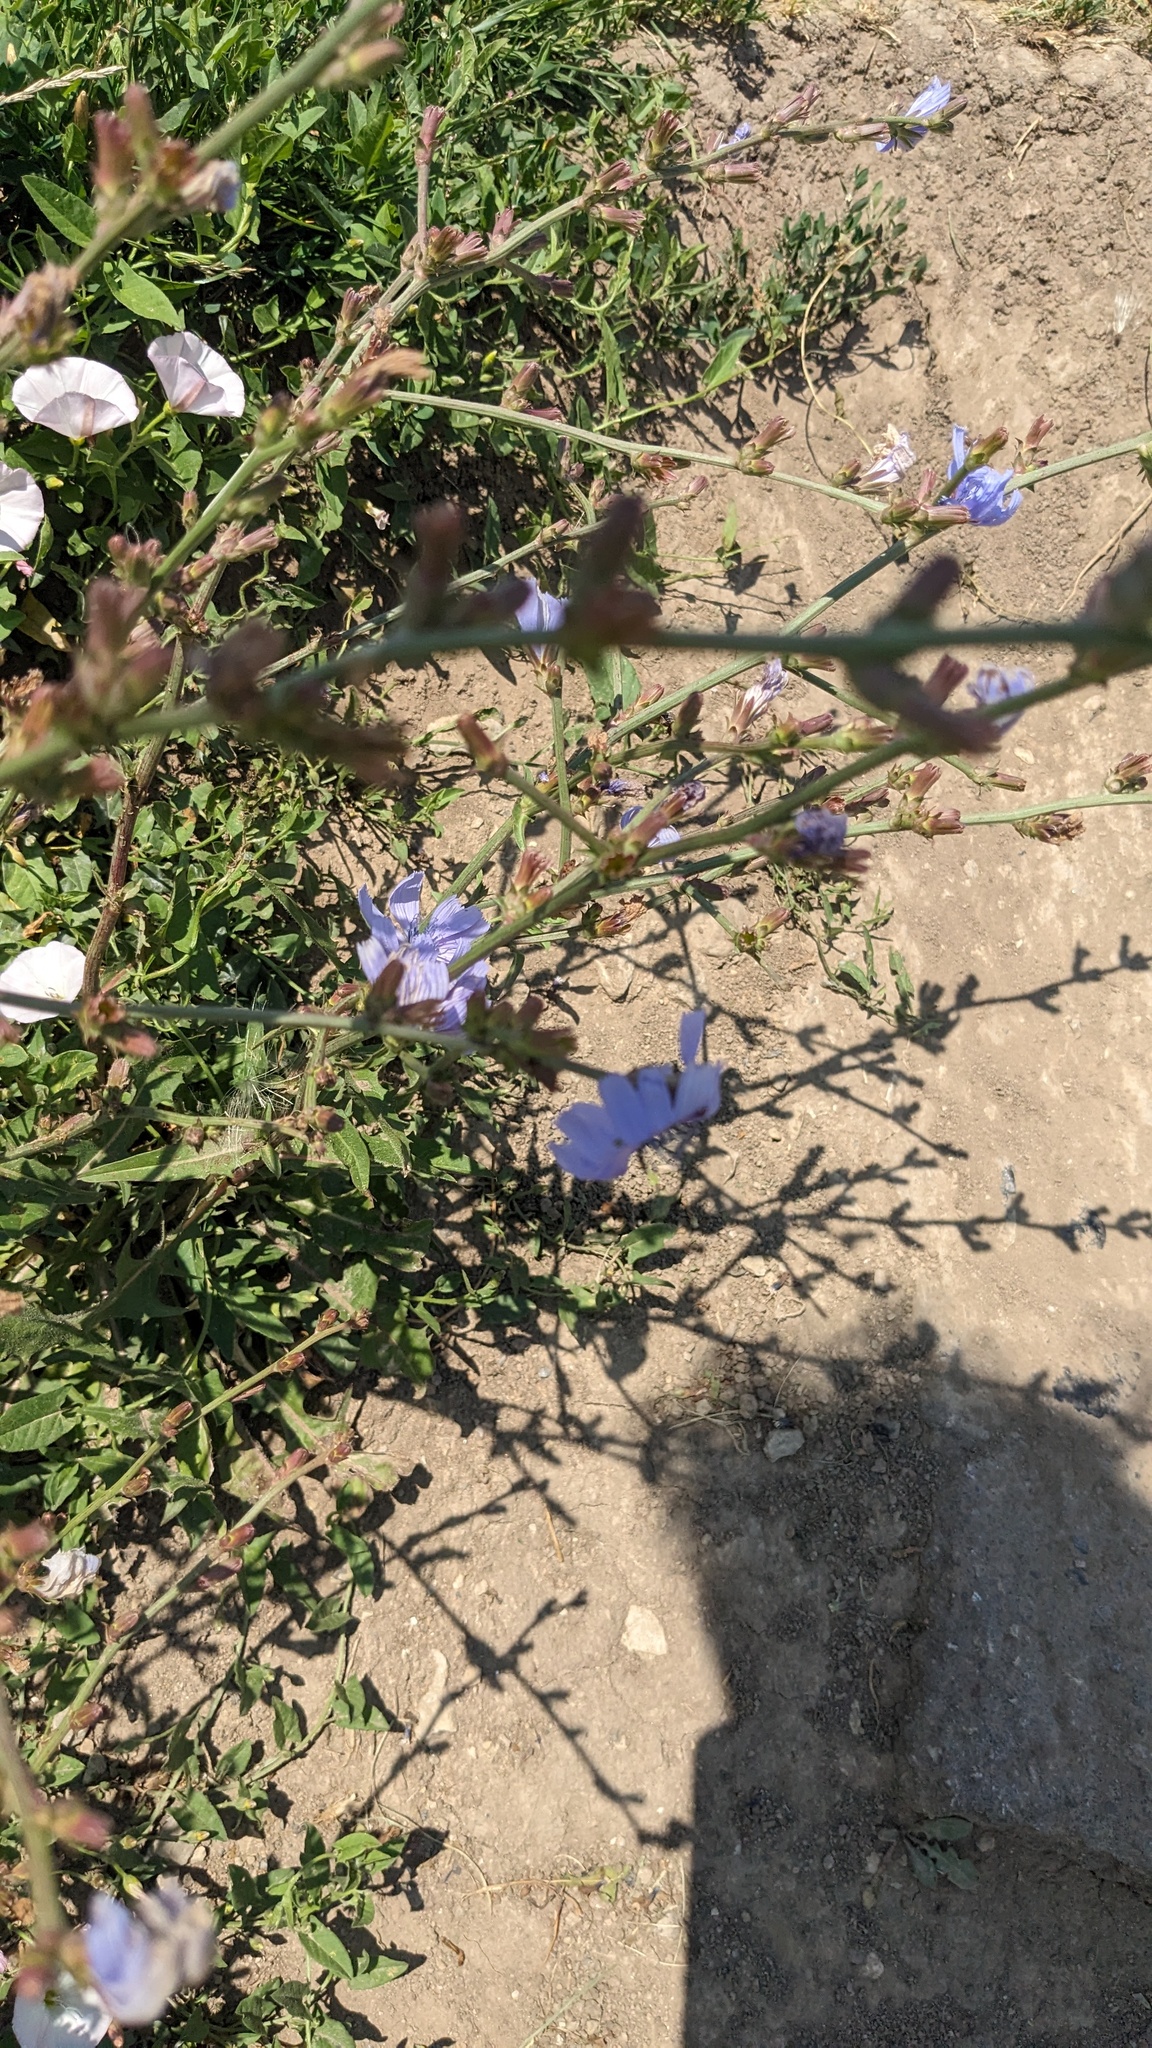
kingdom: Plantae
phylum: Tracheophyta
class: Magnoliopsida
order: Asterales
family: Asteraceae
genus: Cichorium
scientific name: Cichorium intybus
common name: Chicory
